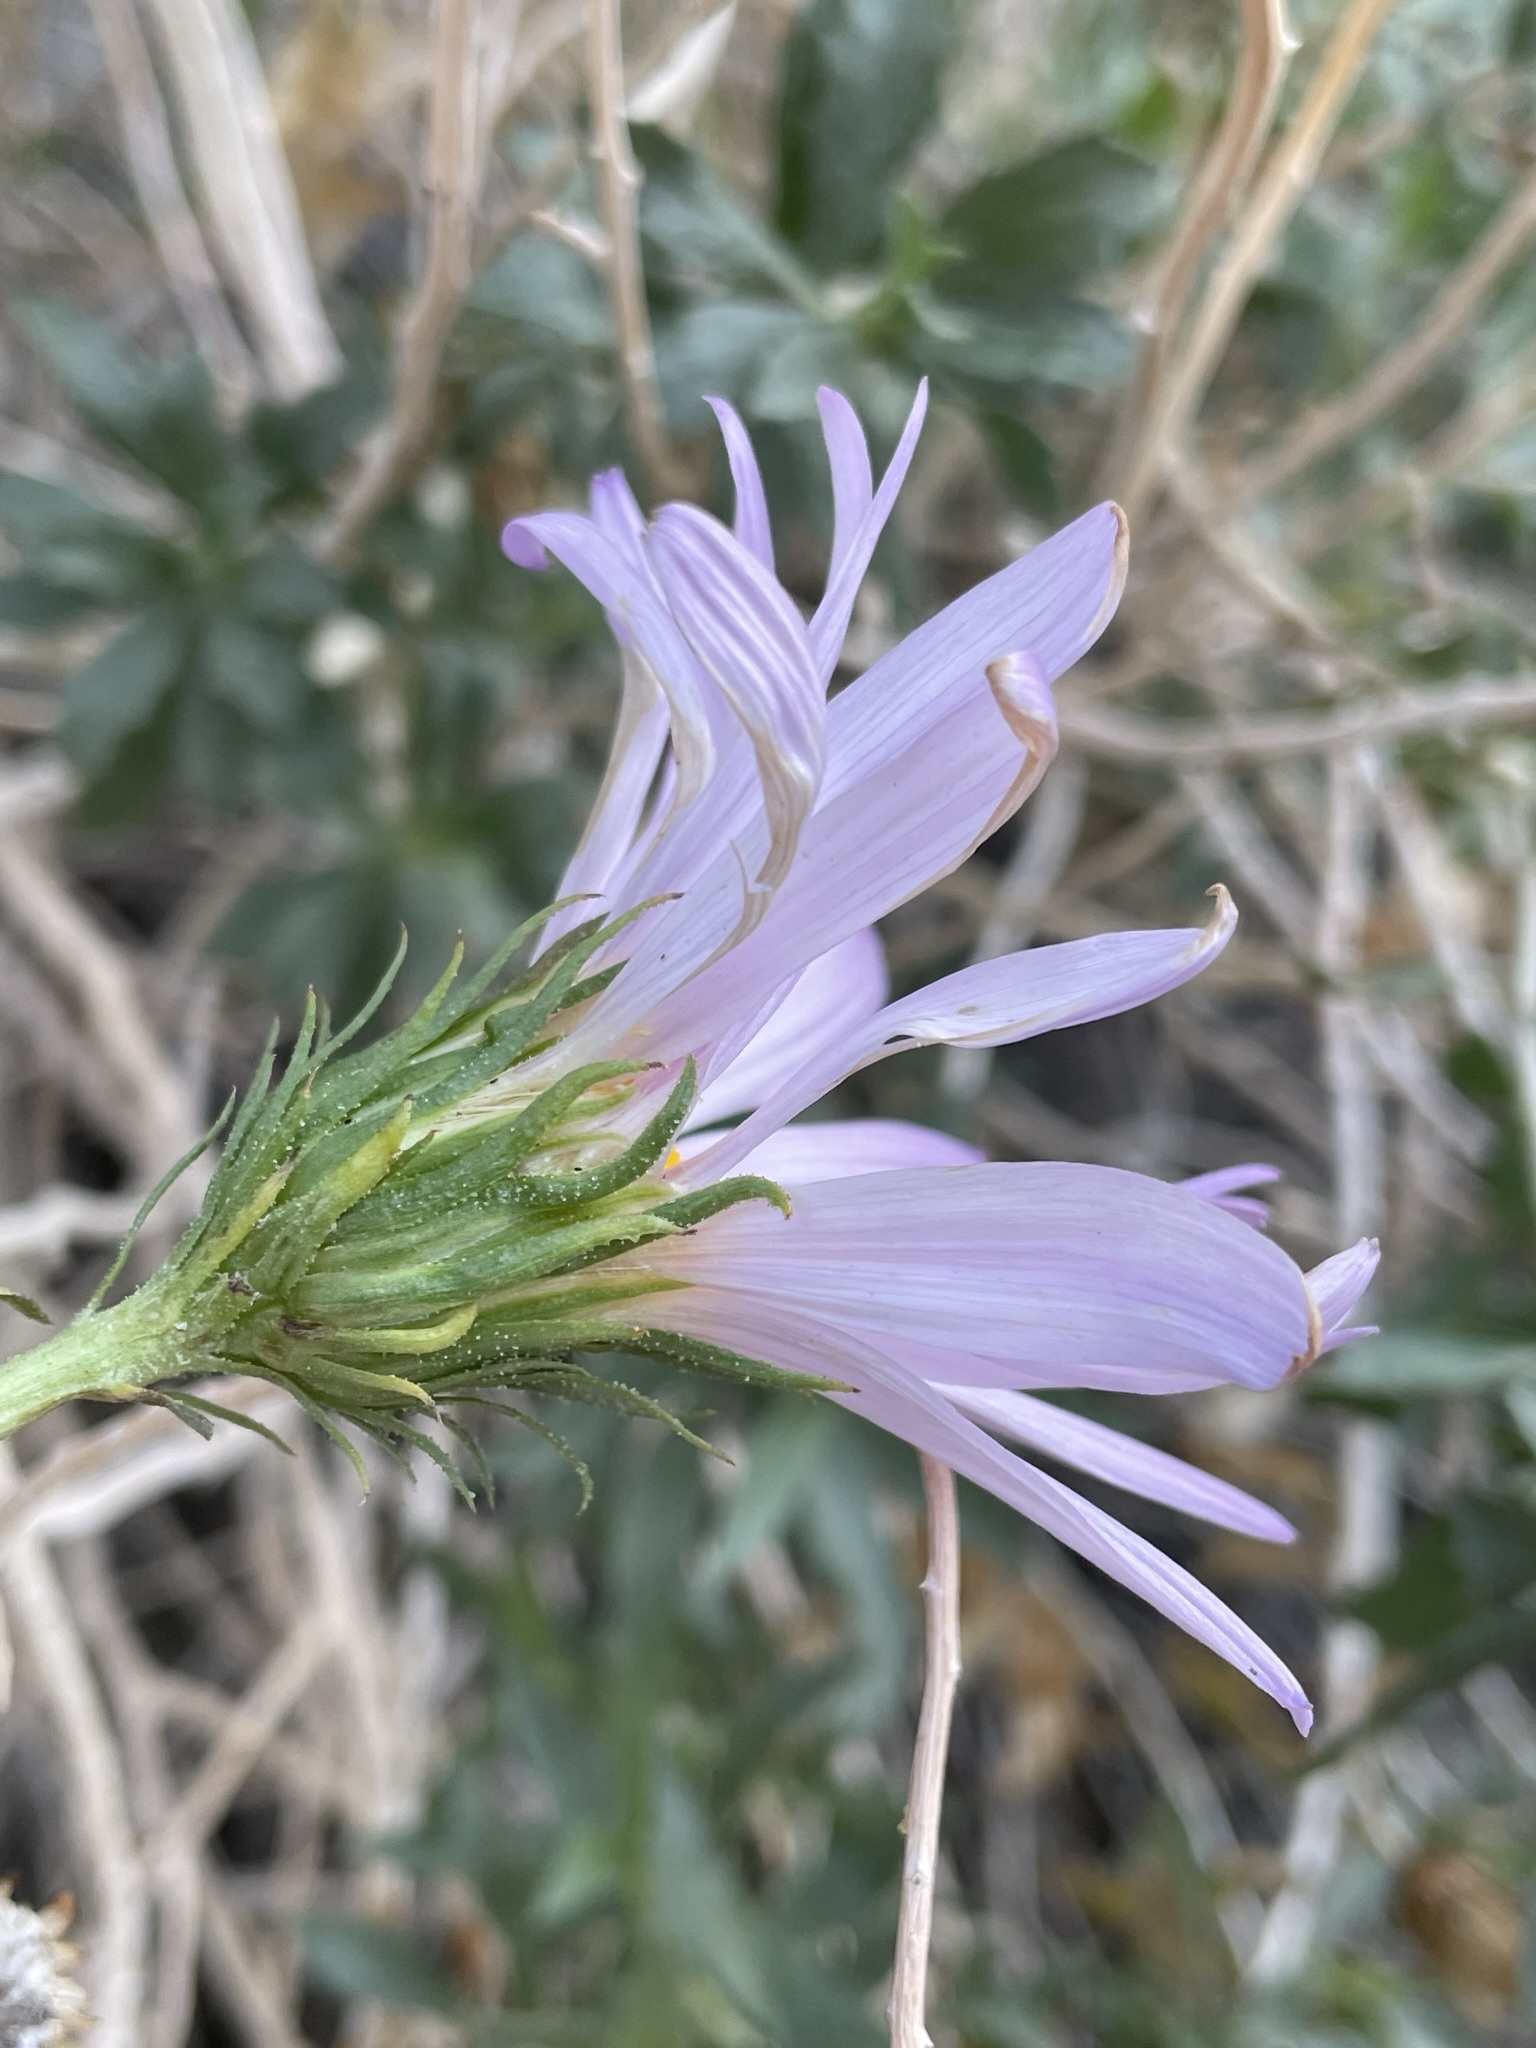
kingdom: Plantae
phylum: Tracheophyta
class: Magnoliopsida
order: Asterales
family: Asteraceae
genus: Xylorhiza
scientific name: Xylorhiza cognata
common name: Mecca woody-aster
